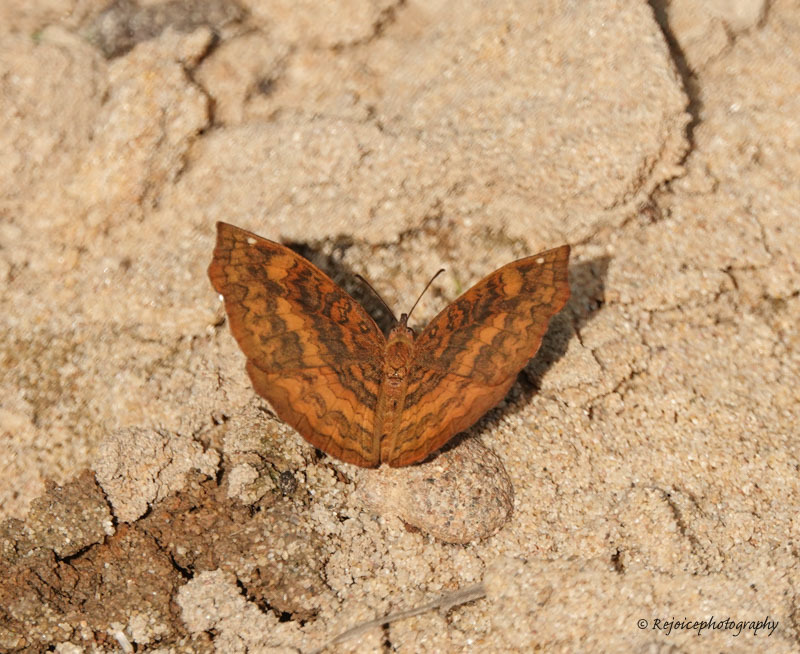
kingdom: Animalia
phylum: Arthropoda
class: Insecta
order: Lepidoptera
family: Nymphalidae
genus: Ariadne
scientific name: Ariadne merione
